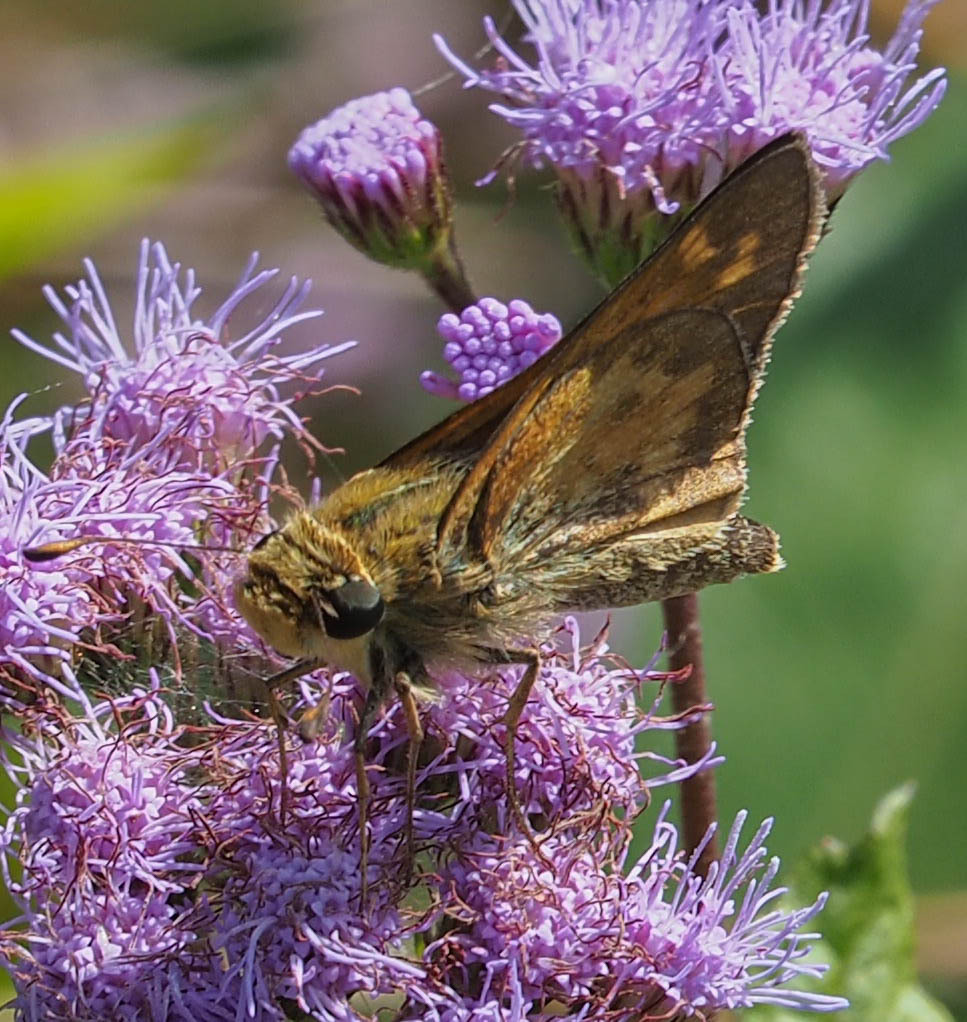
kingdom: Animalia
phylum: Arthropoda
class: Insecta
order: Lepidoptera
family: Hesperiidae
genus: Atalopedes
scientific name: Atalopedes
